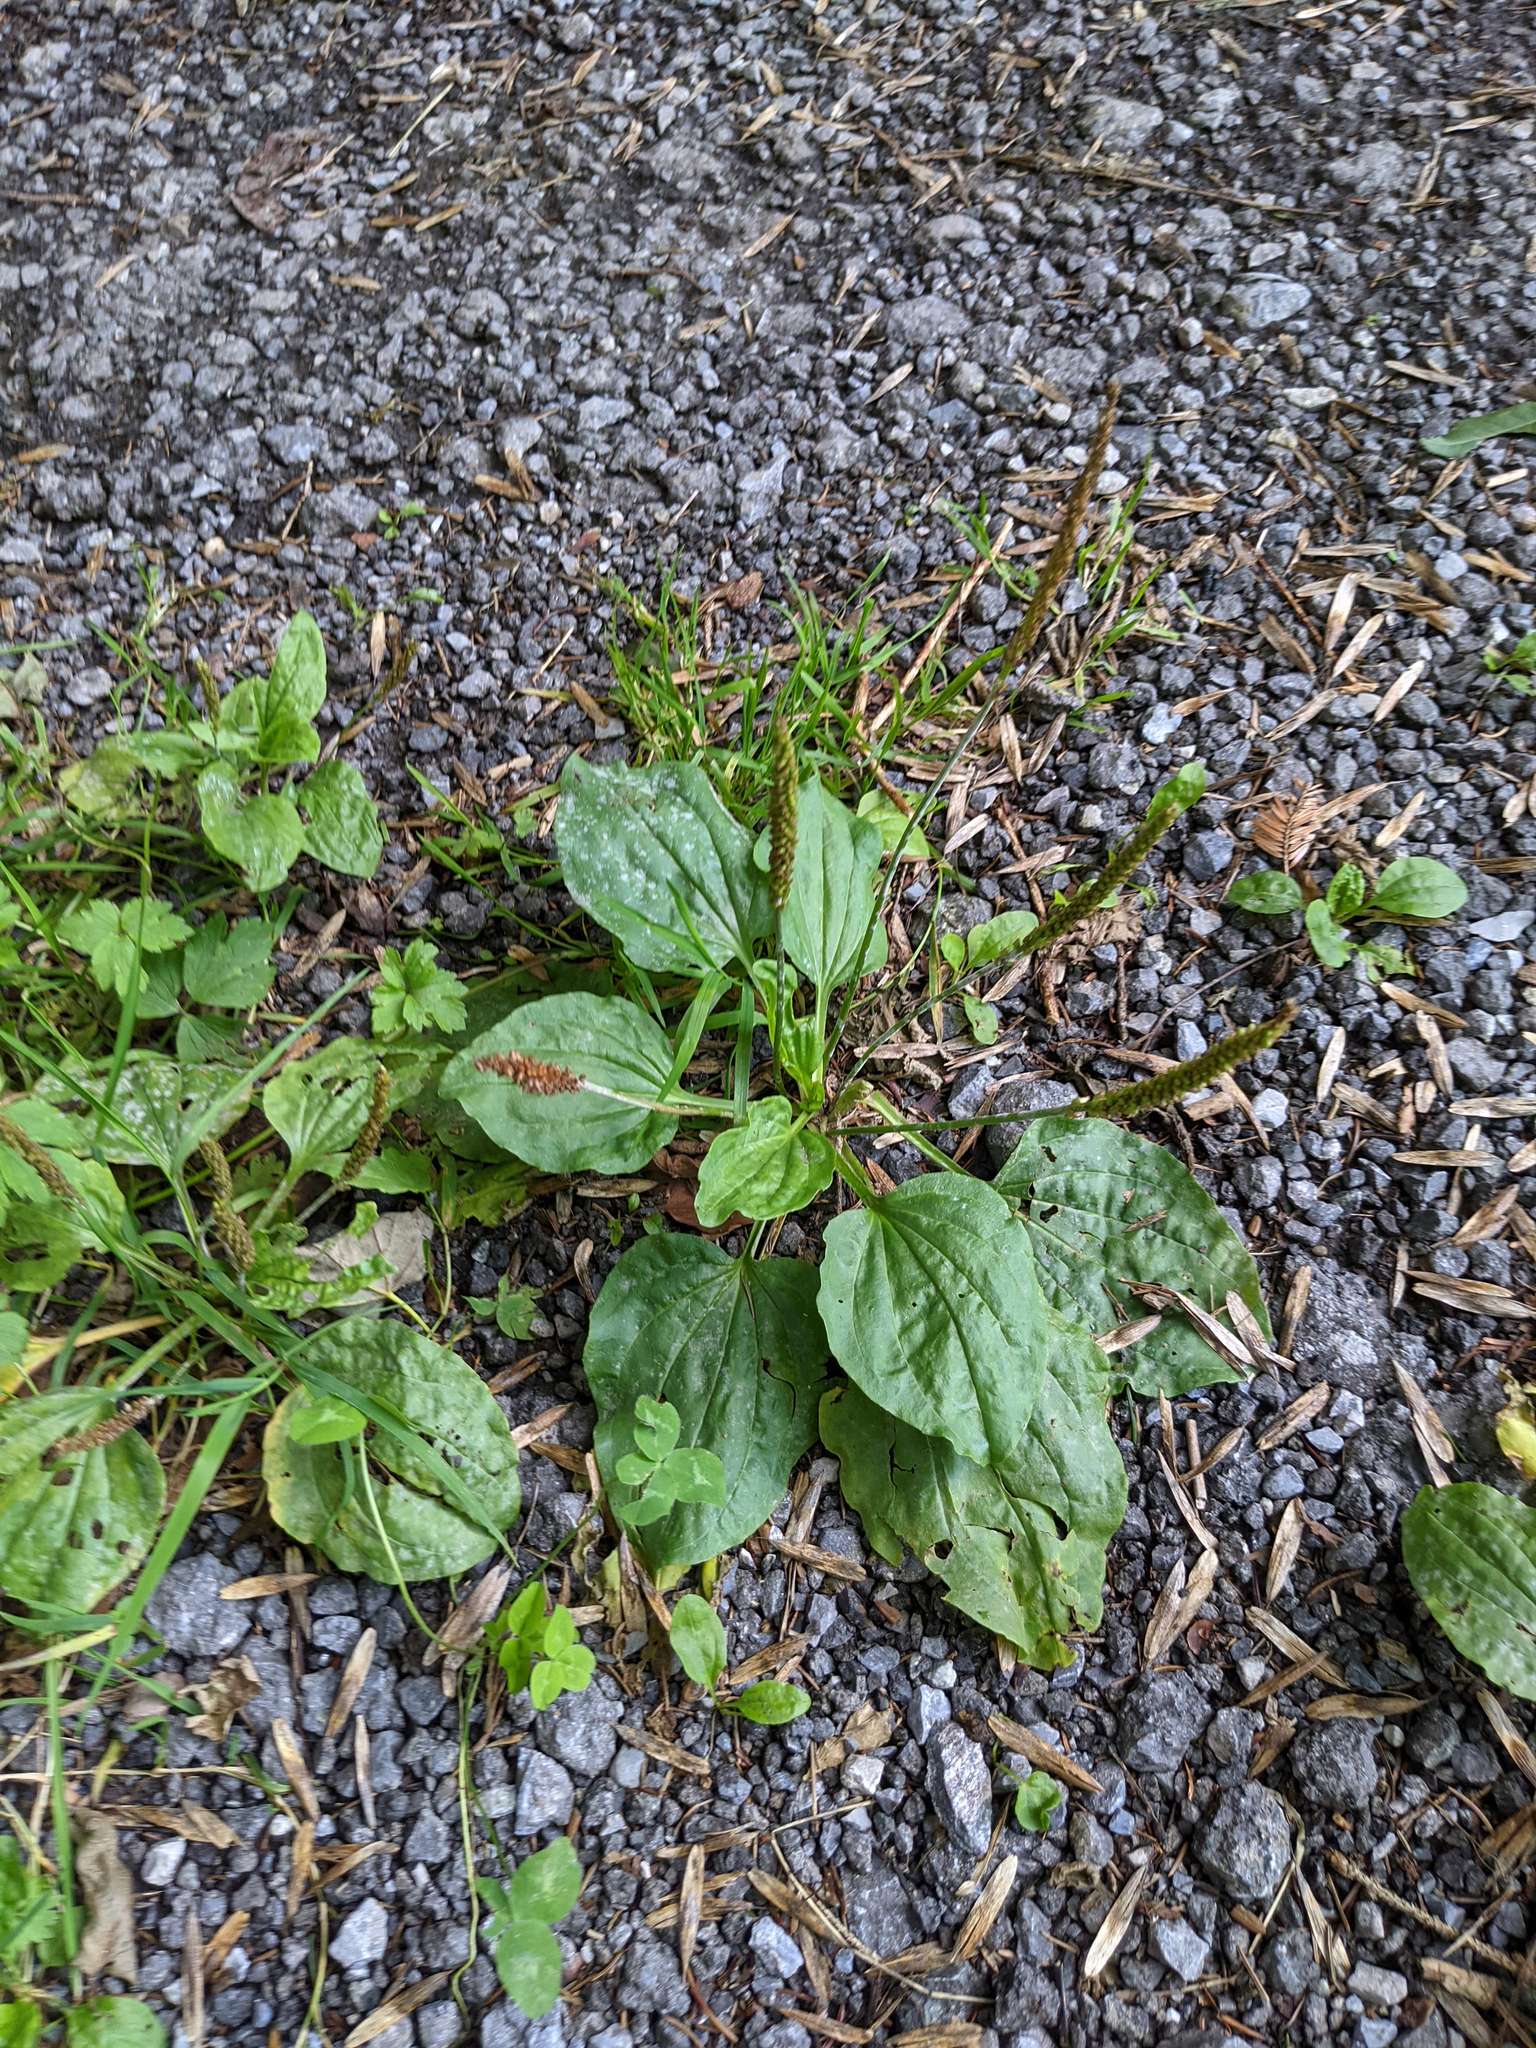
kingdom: Plantae
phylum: Tracheophyta
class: Magnoliopsida
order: Lamiales
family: Plantaginaceae
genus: Plantago
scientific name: Plantago major
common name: Common plantain
